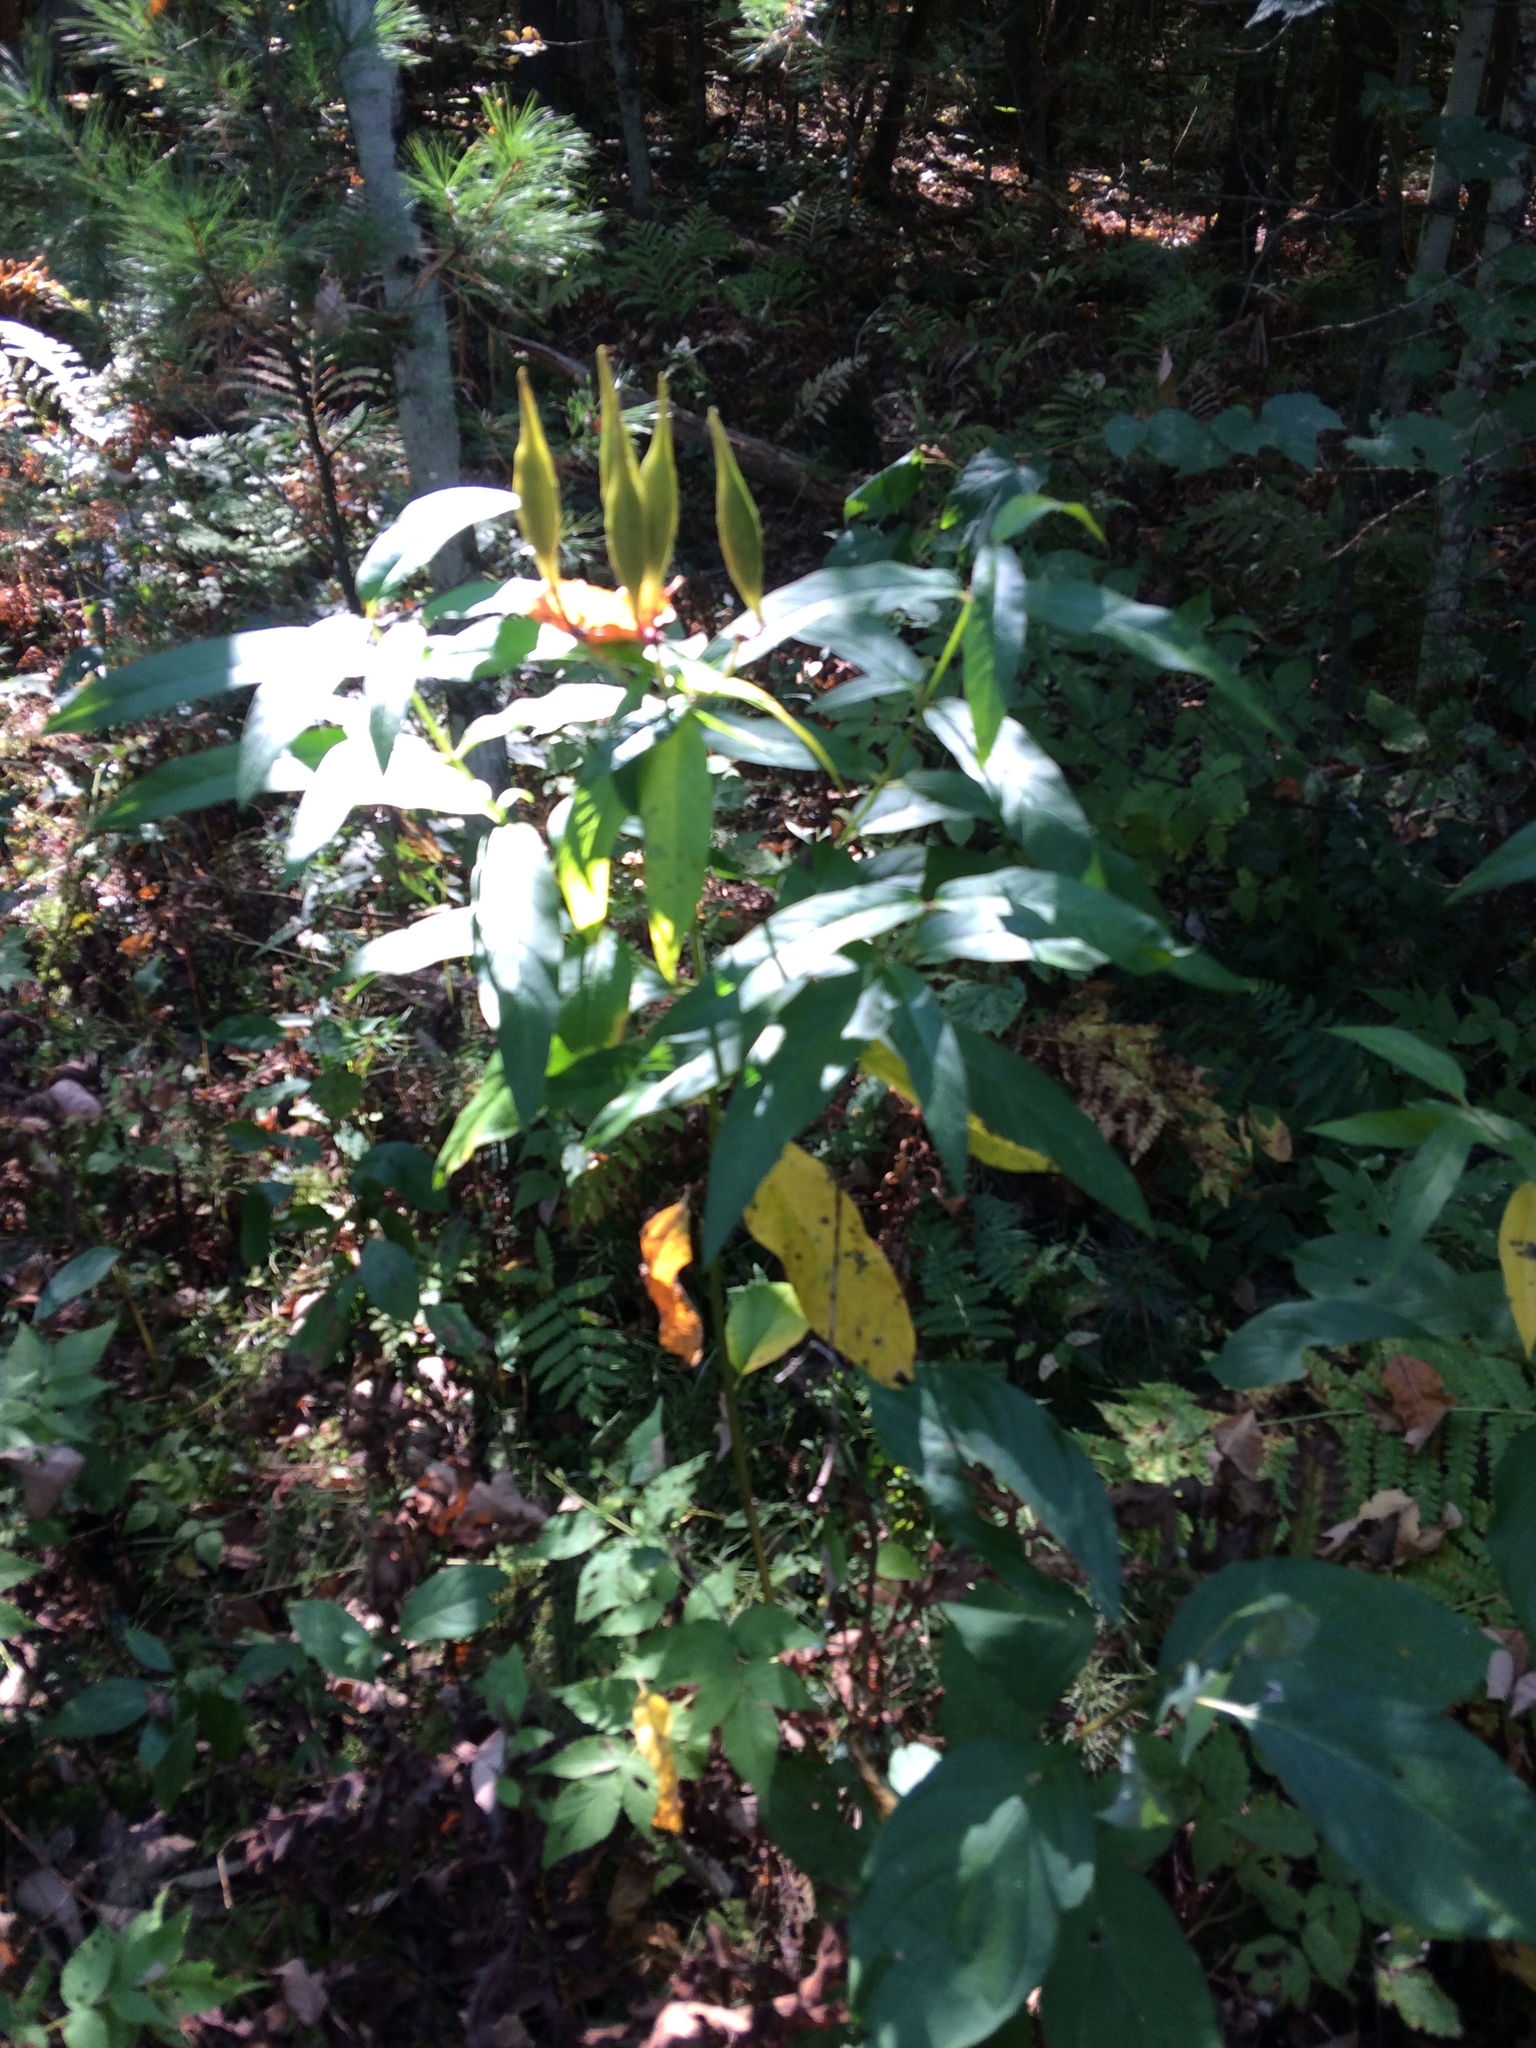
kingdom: Plantae
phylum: Tracheophyta
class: Magnoliopsida
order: Gentianales
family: Apocynaceae
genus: Asclepias
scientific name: Asclepias incarnata
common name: Swamp milkweed
